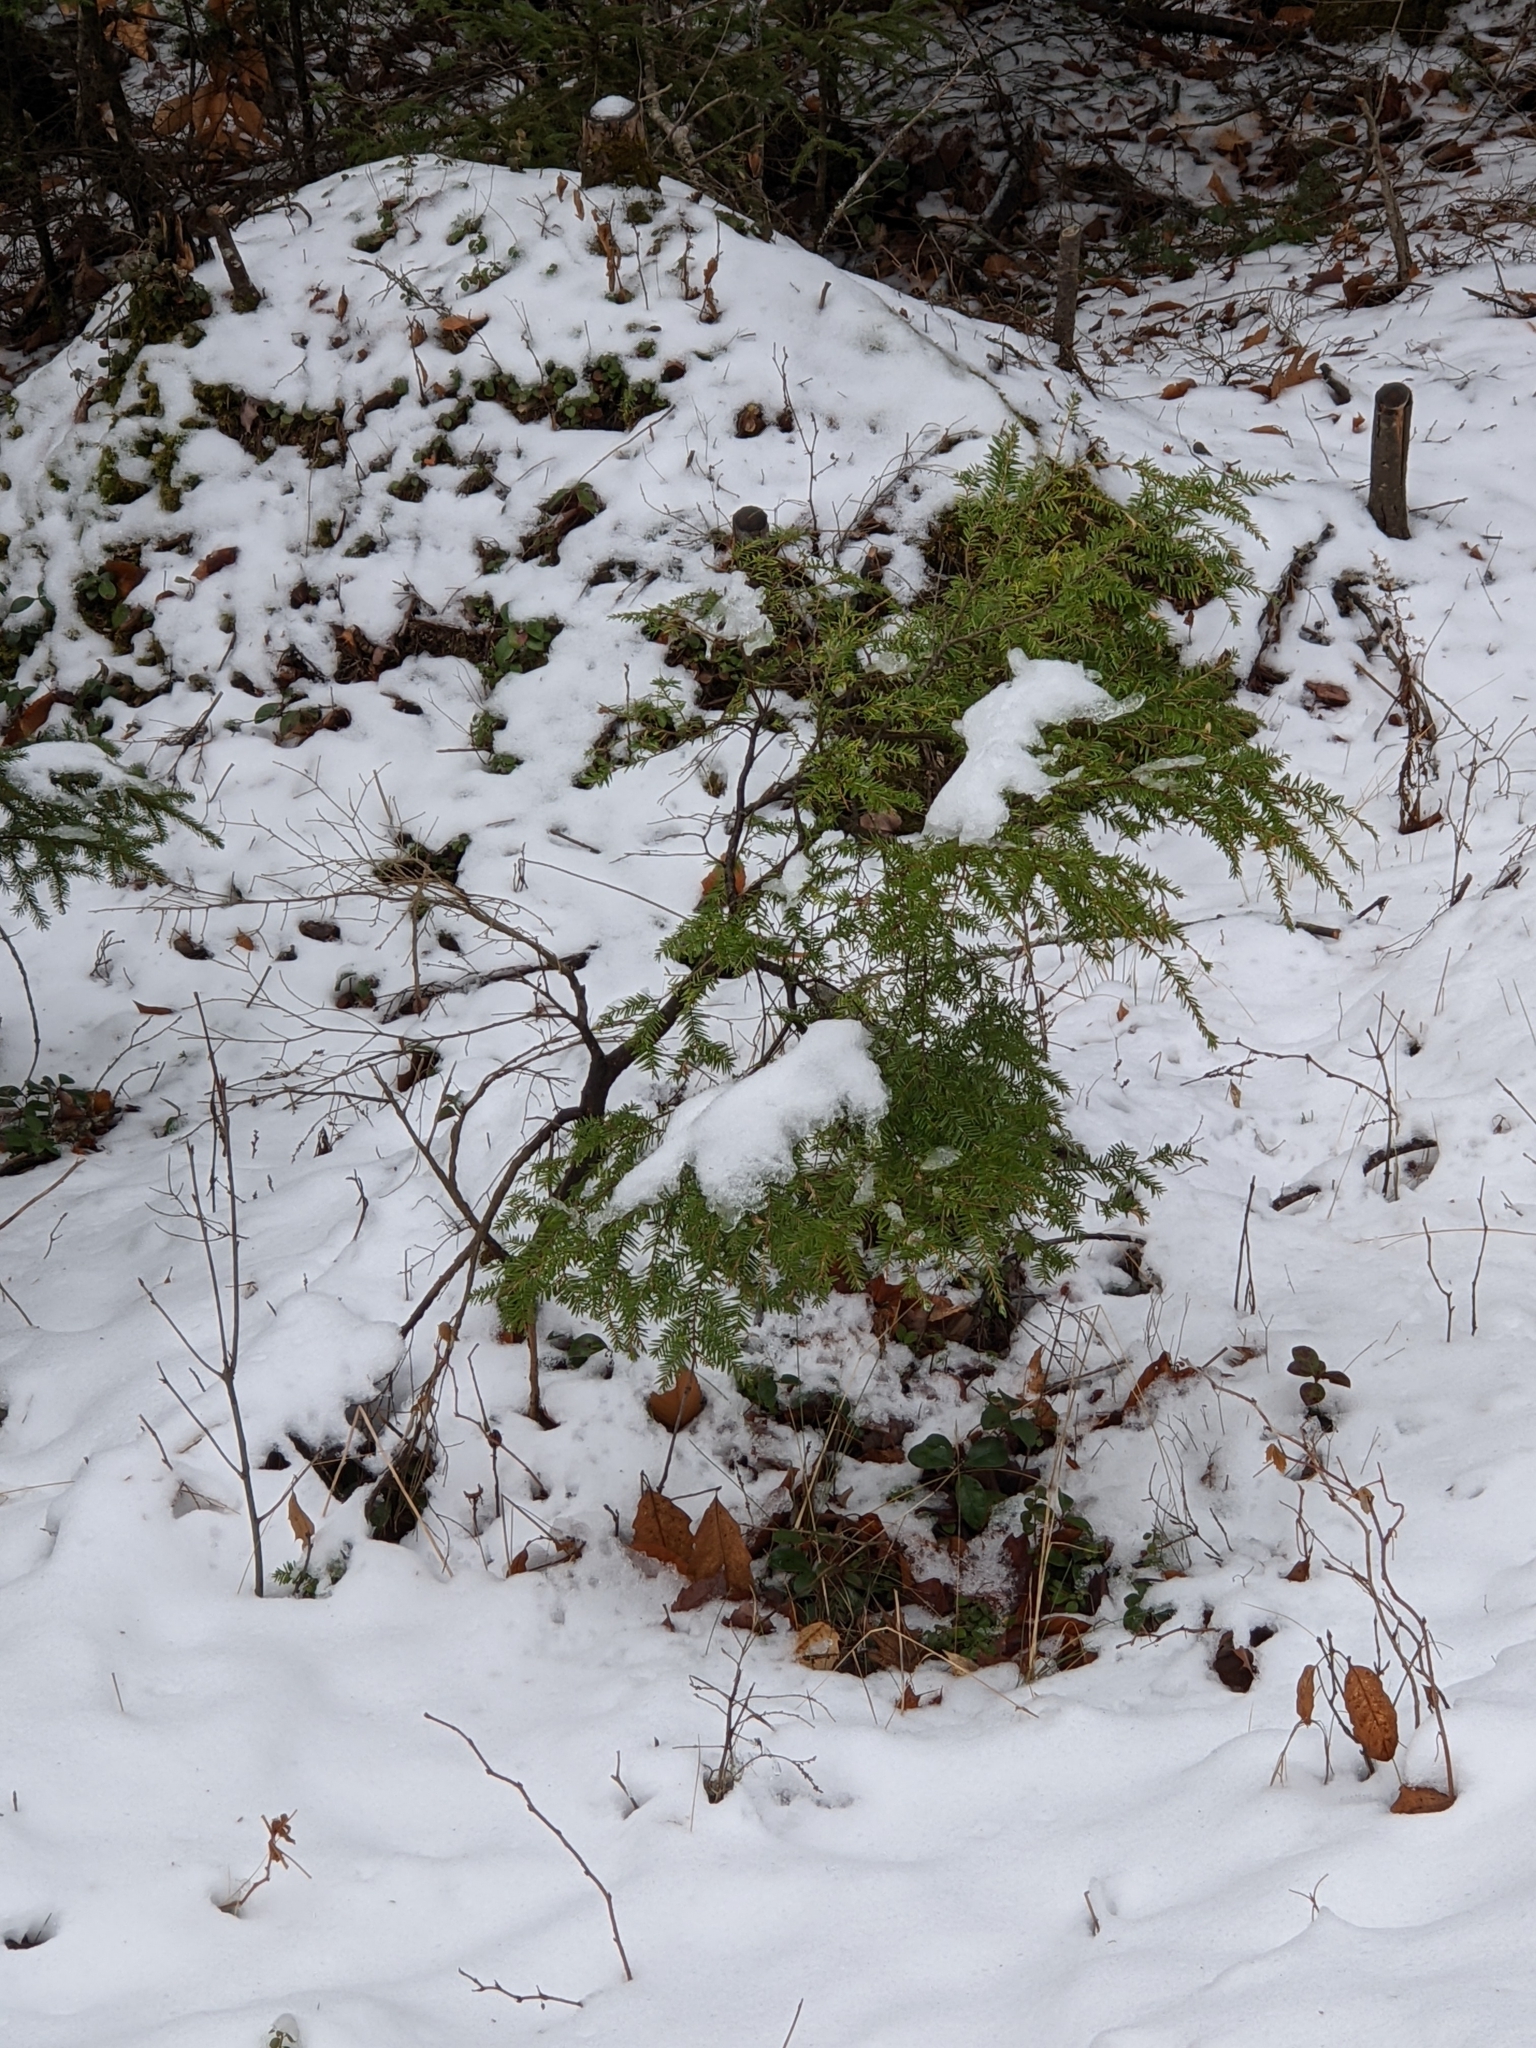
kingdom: Plantae
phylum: Tracheophyta
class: Pinopsida
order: Pinales
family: Pinaceae
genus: Tsuga
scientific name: Tsuga canadensis
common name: Eastern hemlock
